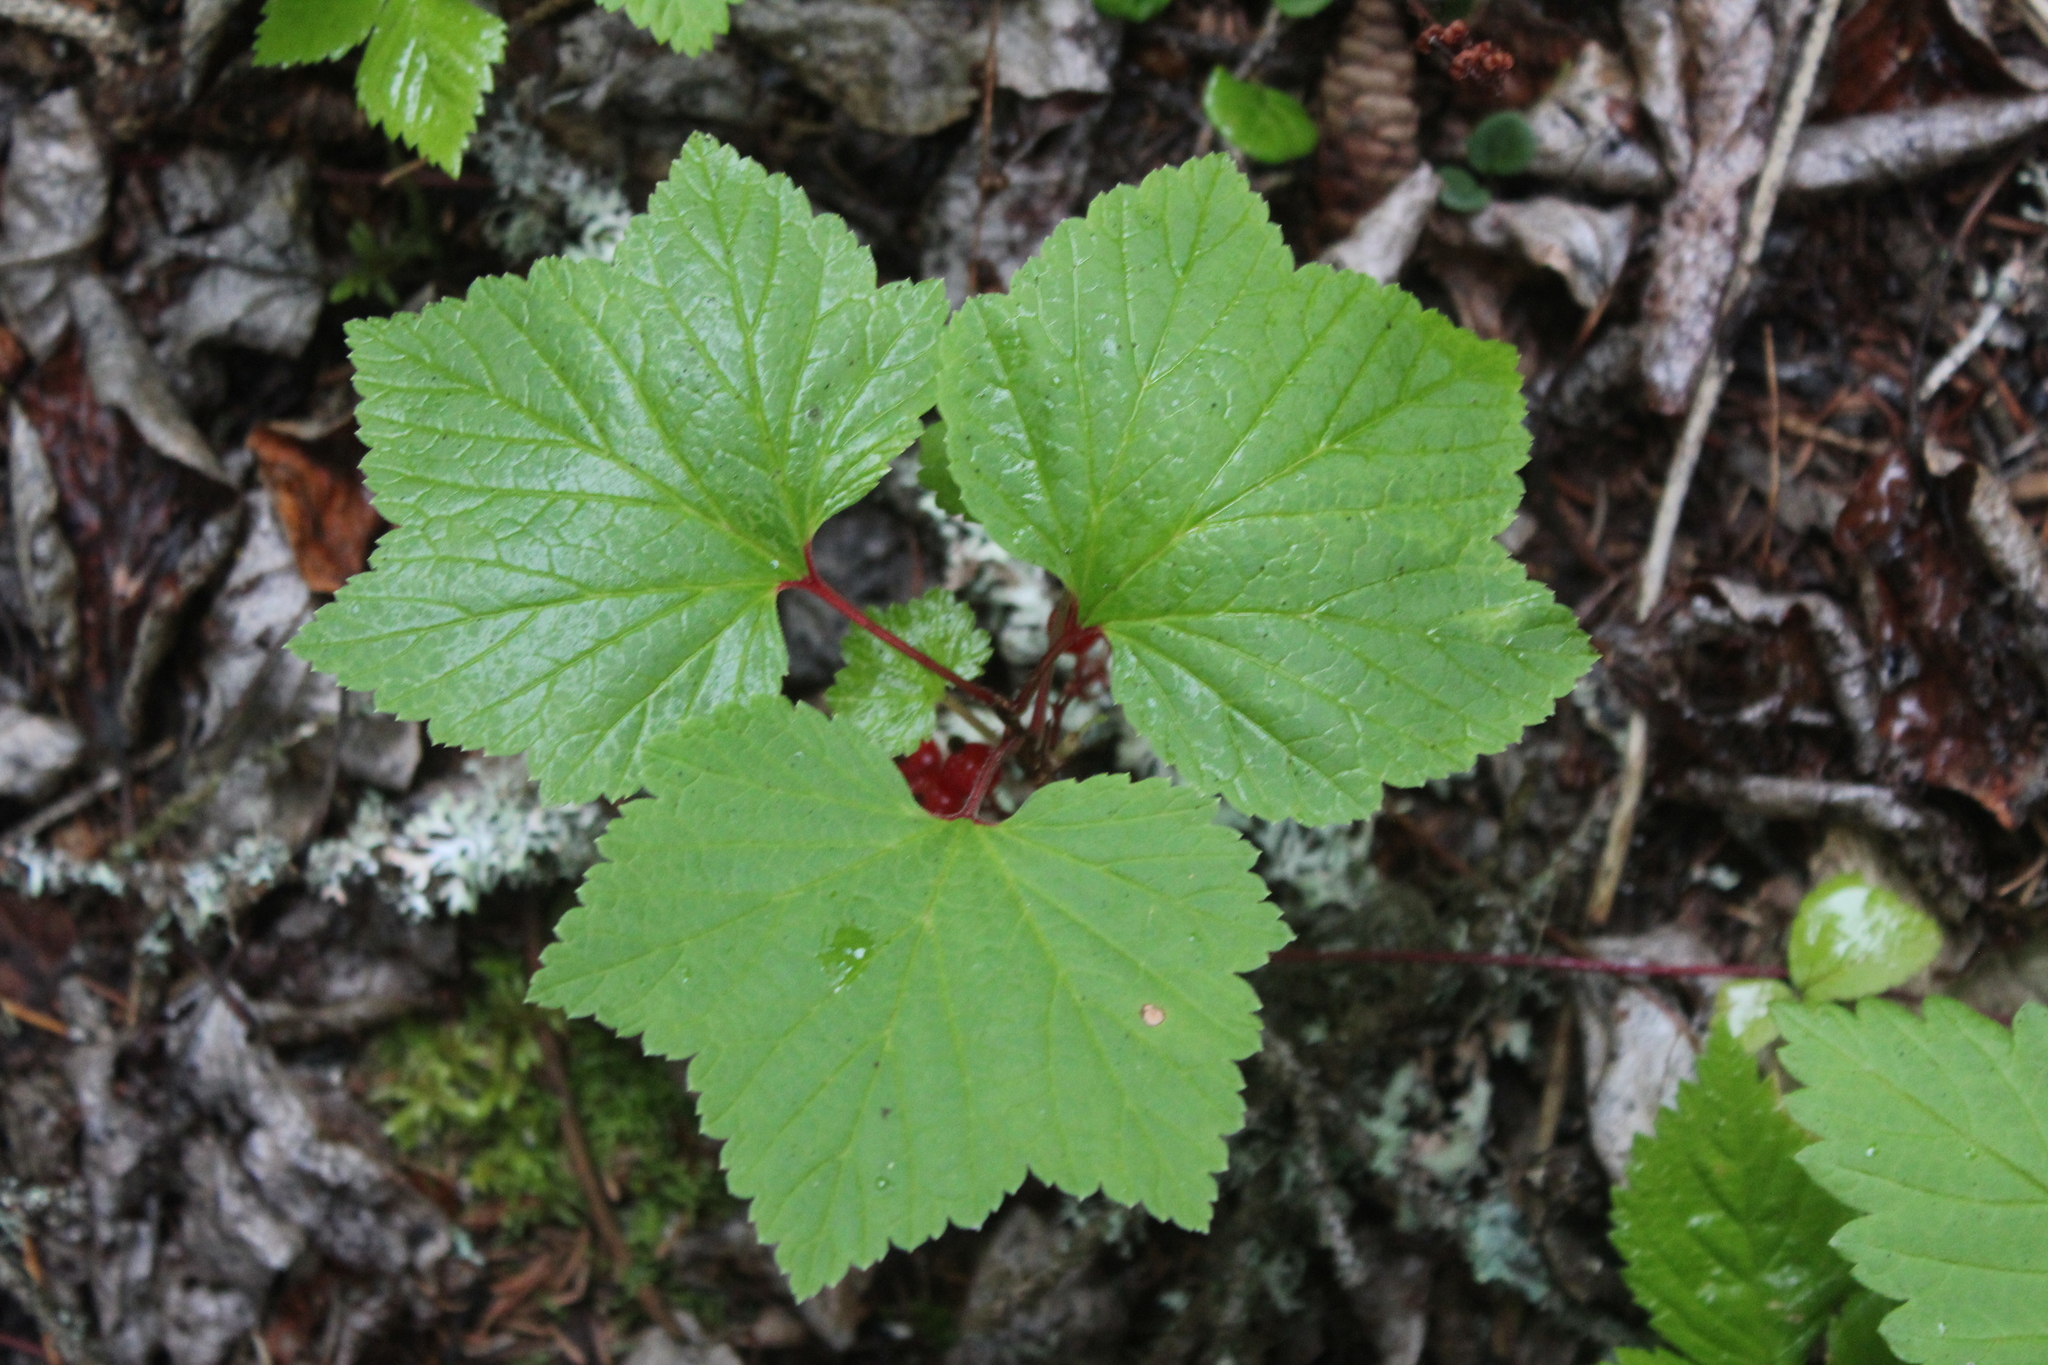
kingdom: Plantae
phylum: Tracheophyta
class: Magnoliopsida
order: Saxifragales
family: Grossulariaceae
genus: Ribes
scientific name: Ribes triste
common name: Swamp red currant
